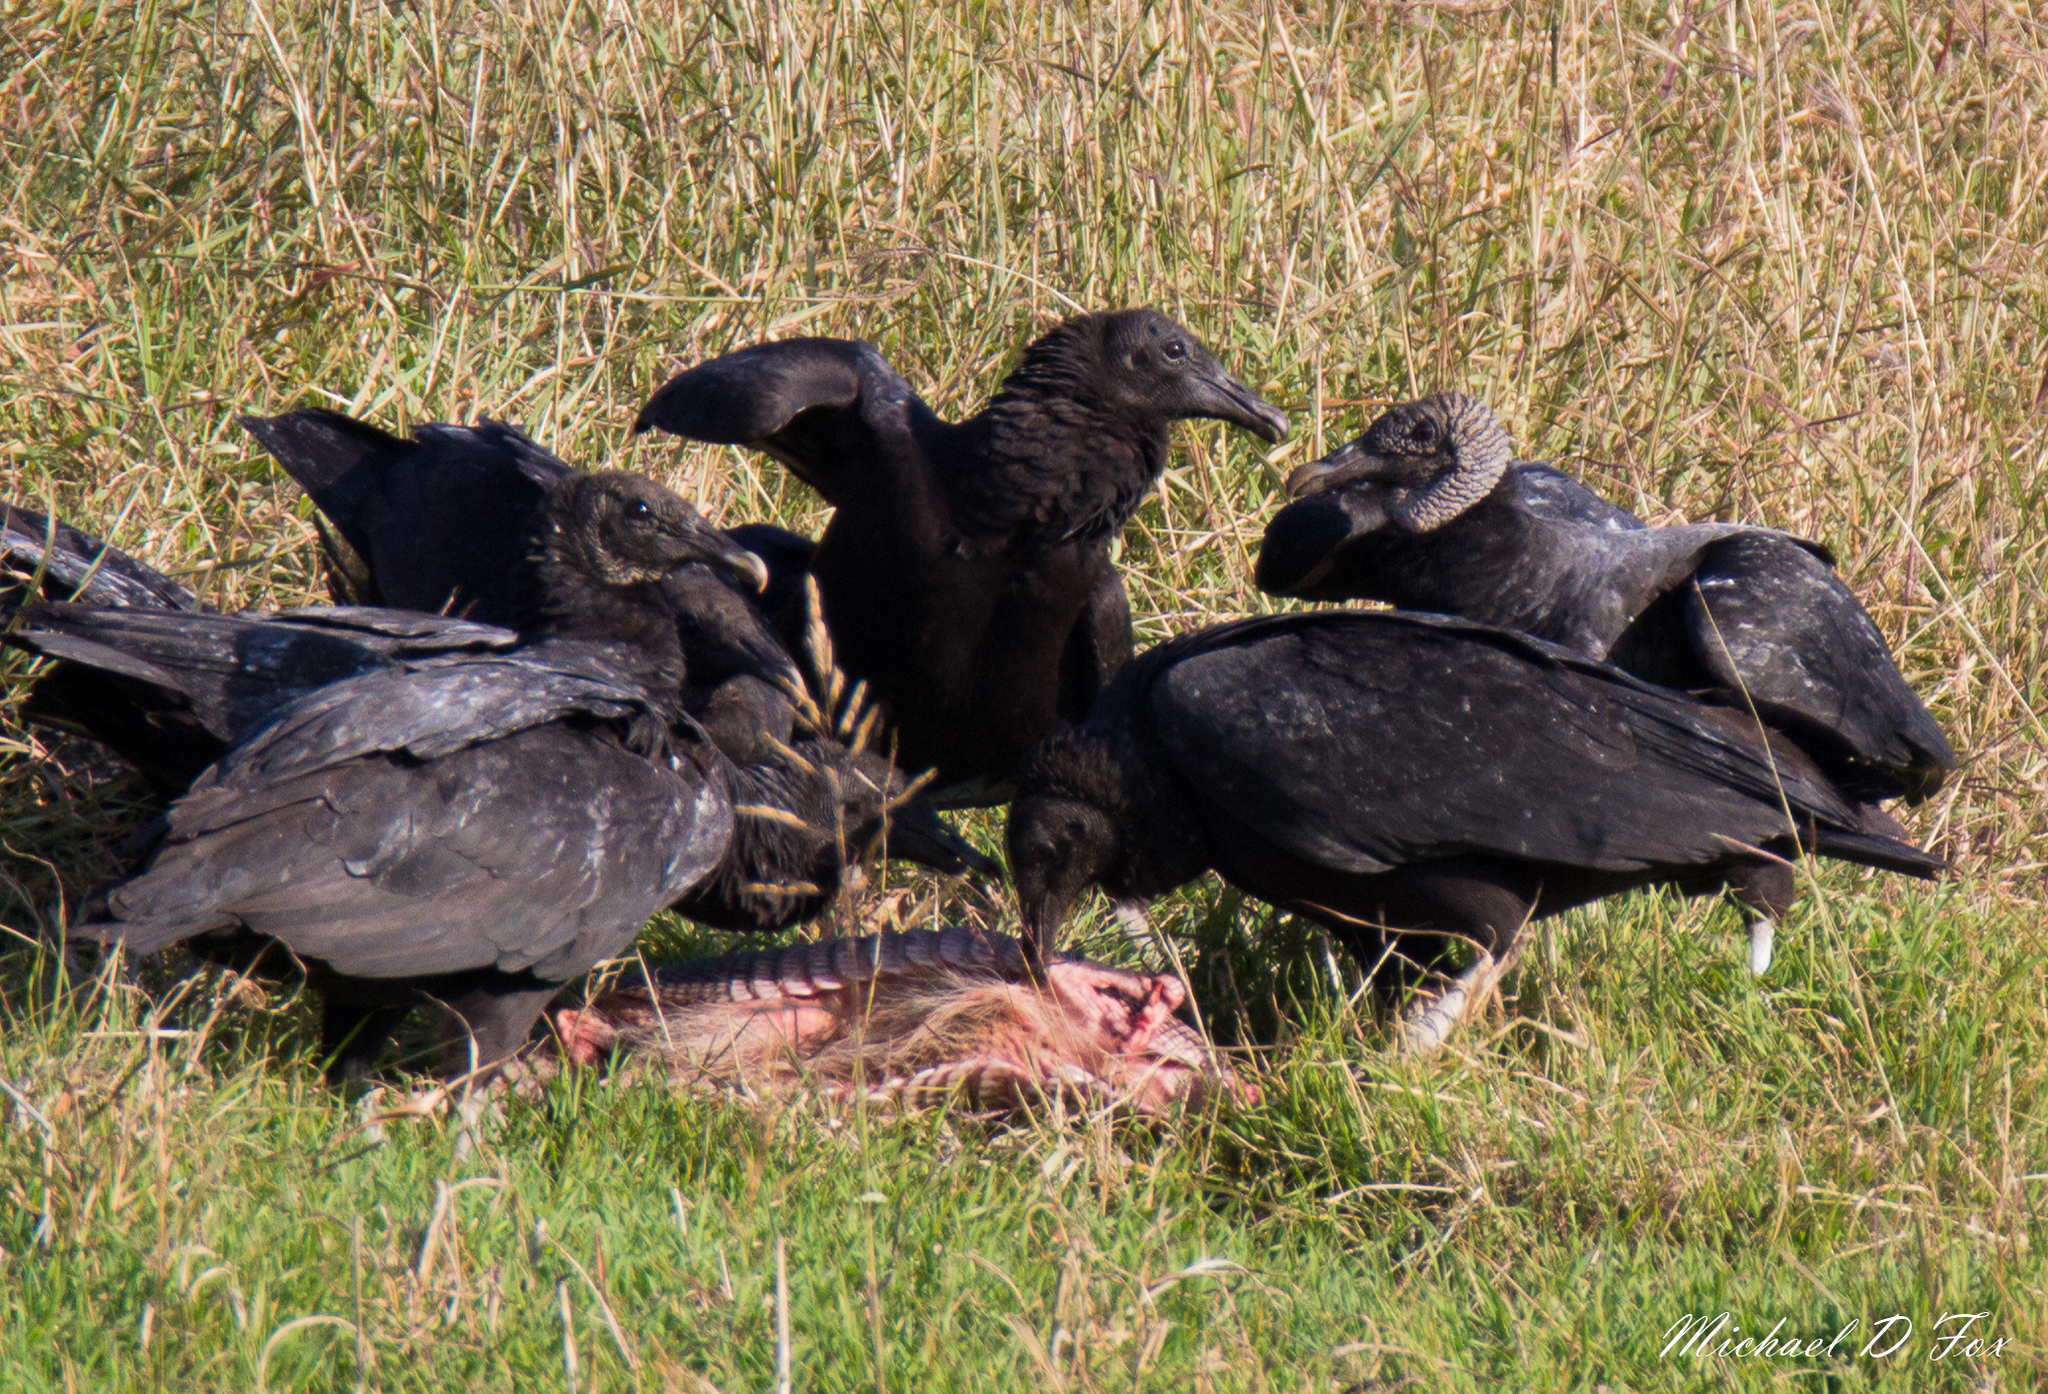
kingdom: Animalia
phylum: Chordata
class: Aves
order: Accipitriformes
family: Cathartidae
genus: Coragyps
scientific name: Coragyps atratus
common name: Black vulture
